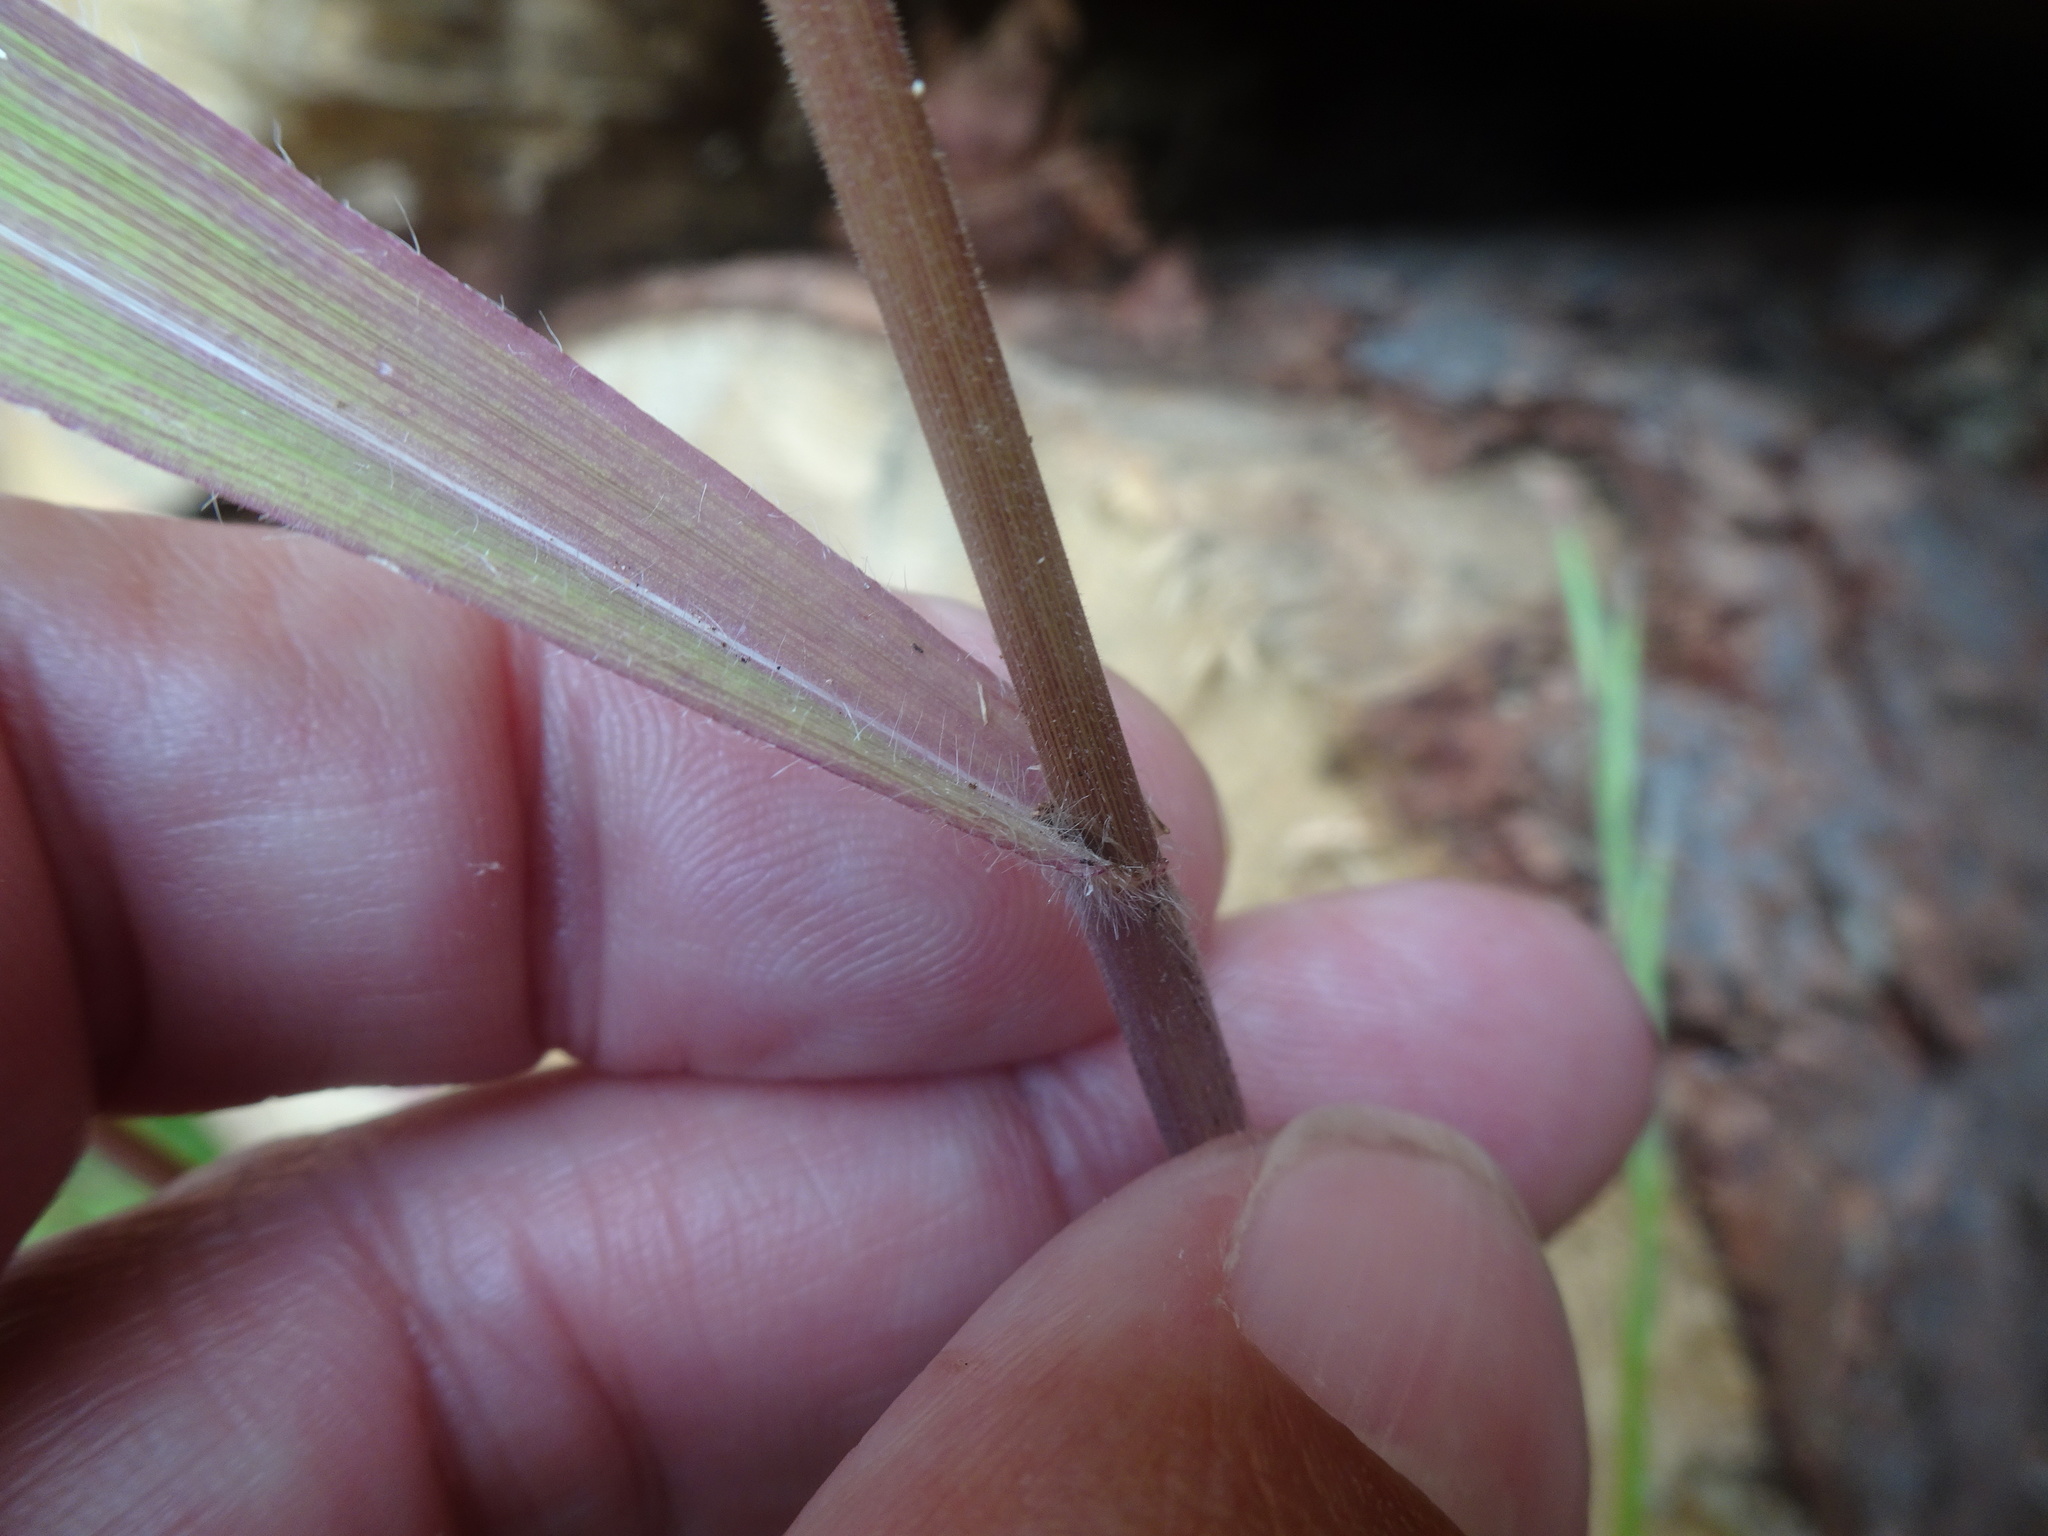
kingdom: Plantae
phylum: Tracheophyta
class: Liliopsida
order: Poales
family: Poaceae
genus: Bromus
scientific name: Bromus benekenii
